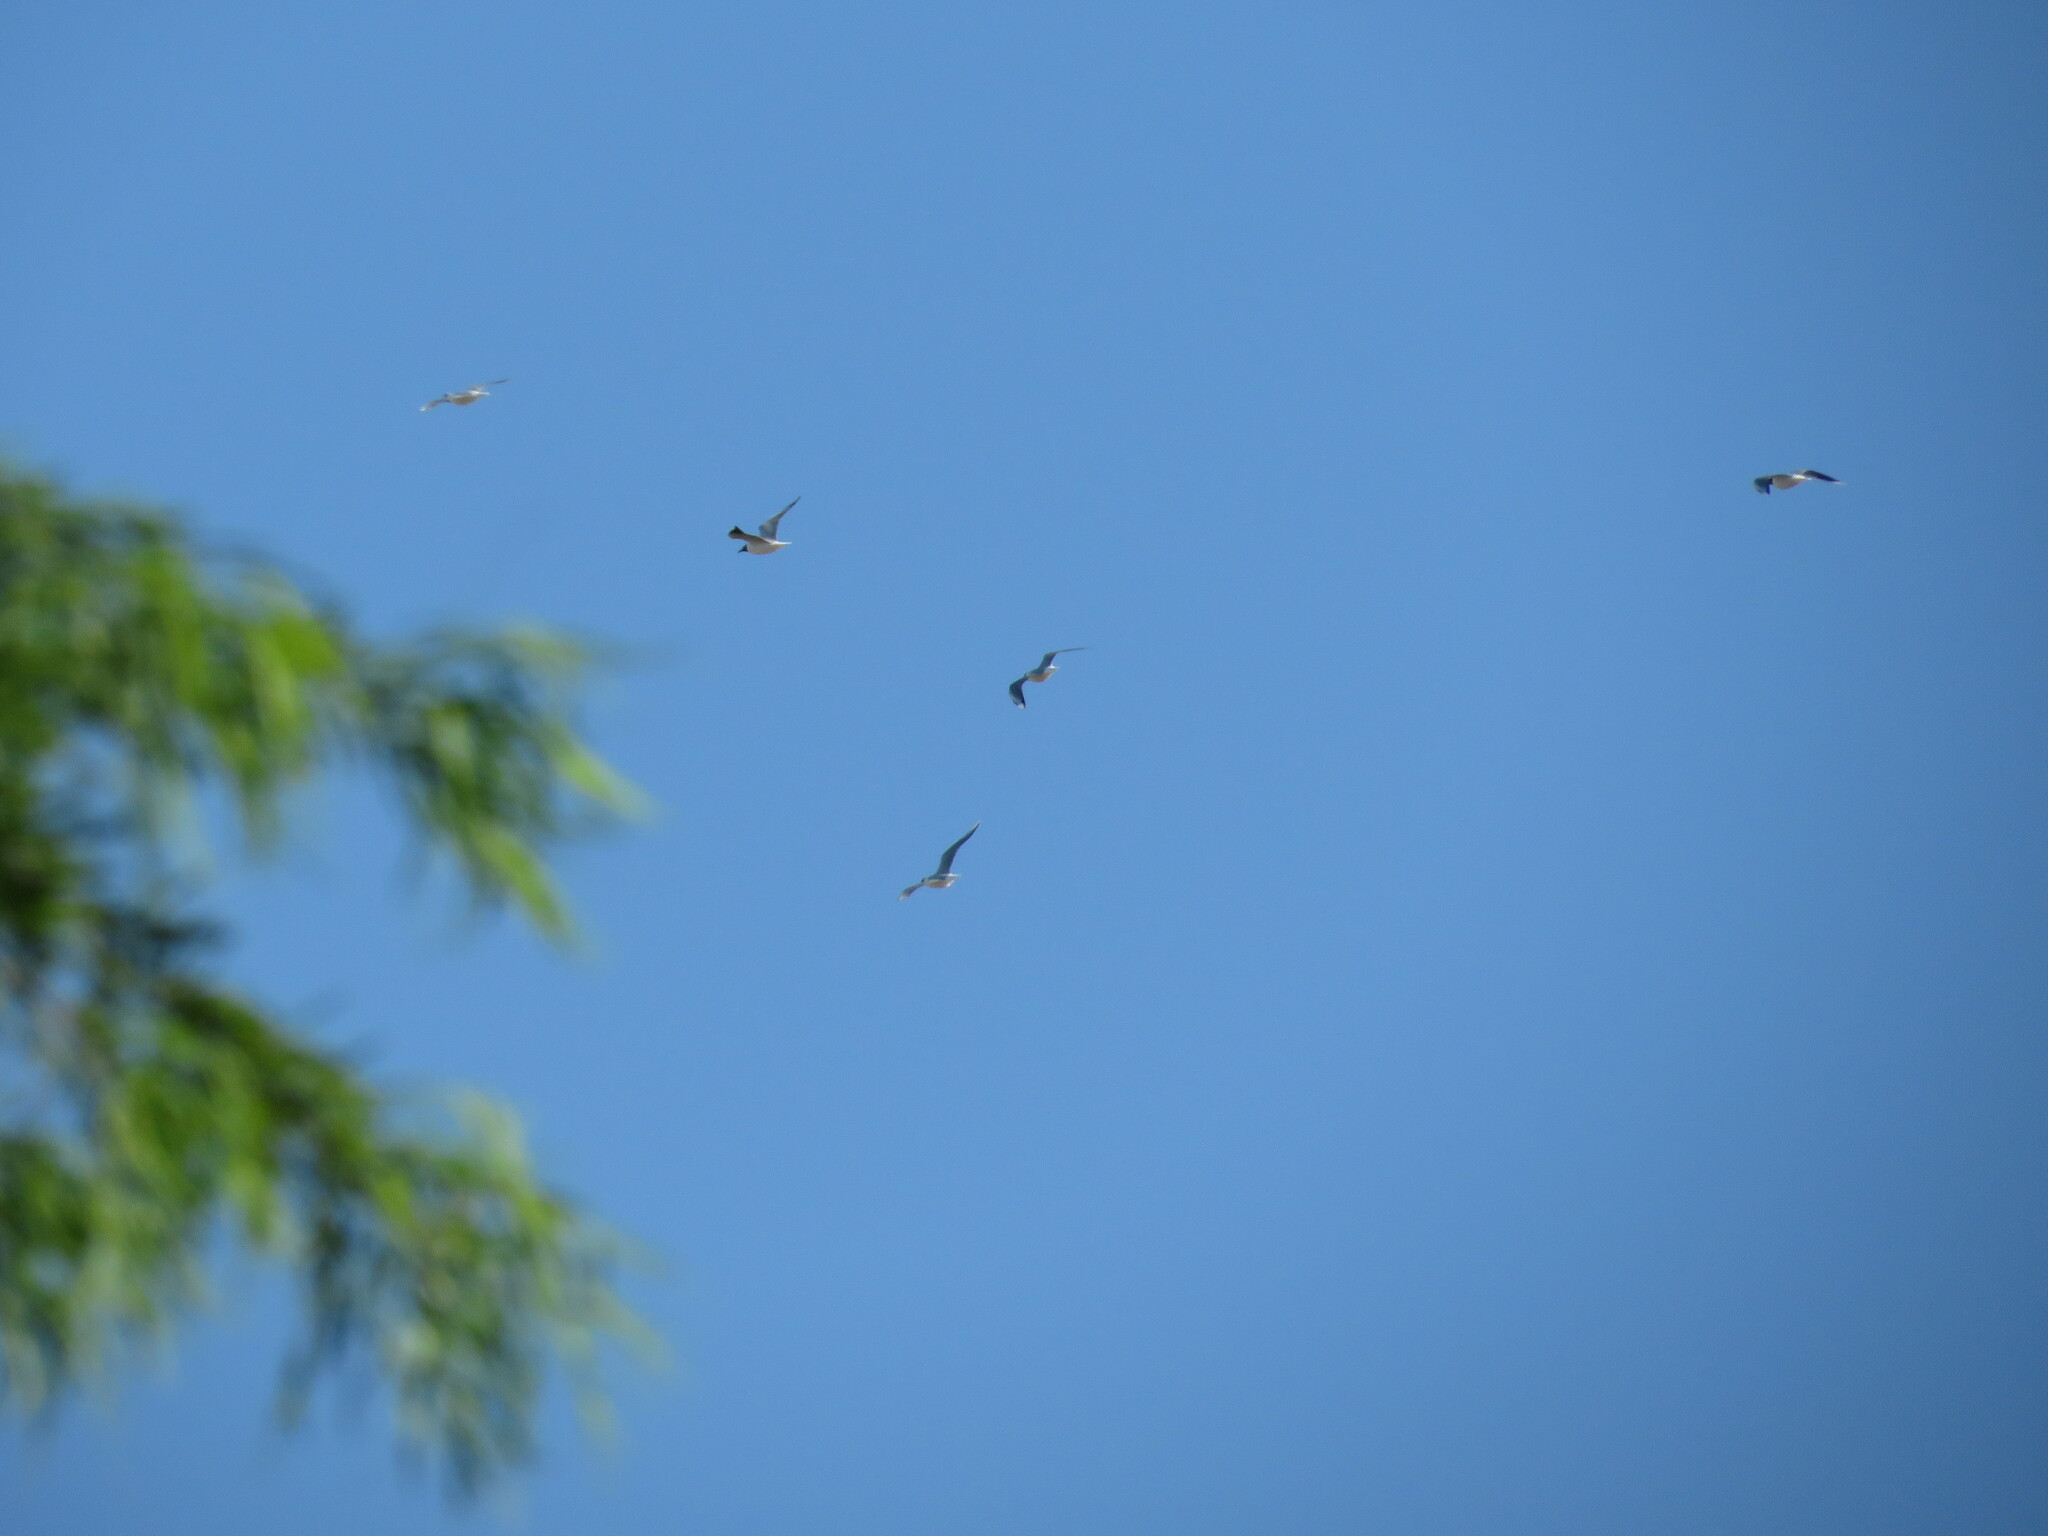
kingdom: Animalia
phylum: Chordata
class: Aves
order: Charadriiformes
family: Laridae
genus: Chroicocephalus
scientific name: Chroicocephalus maculipennis
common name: Brown-hooded gull
